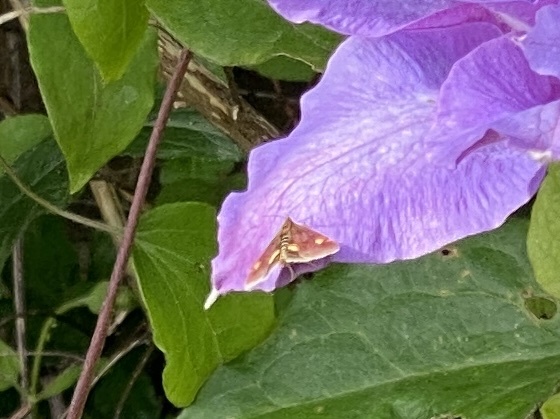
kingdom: Animalia
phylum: Arthropoda
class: Insecta
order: Lepidoptera
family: Crambidae
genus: Pyrausta
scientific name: Pyrausta aurata
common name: Small purple & gold
